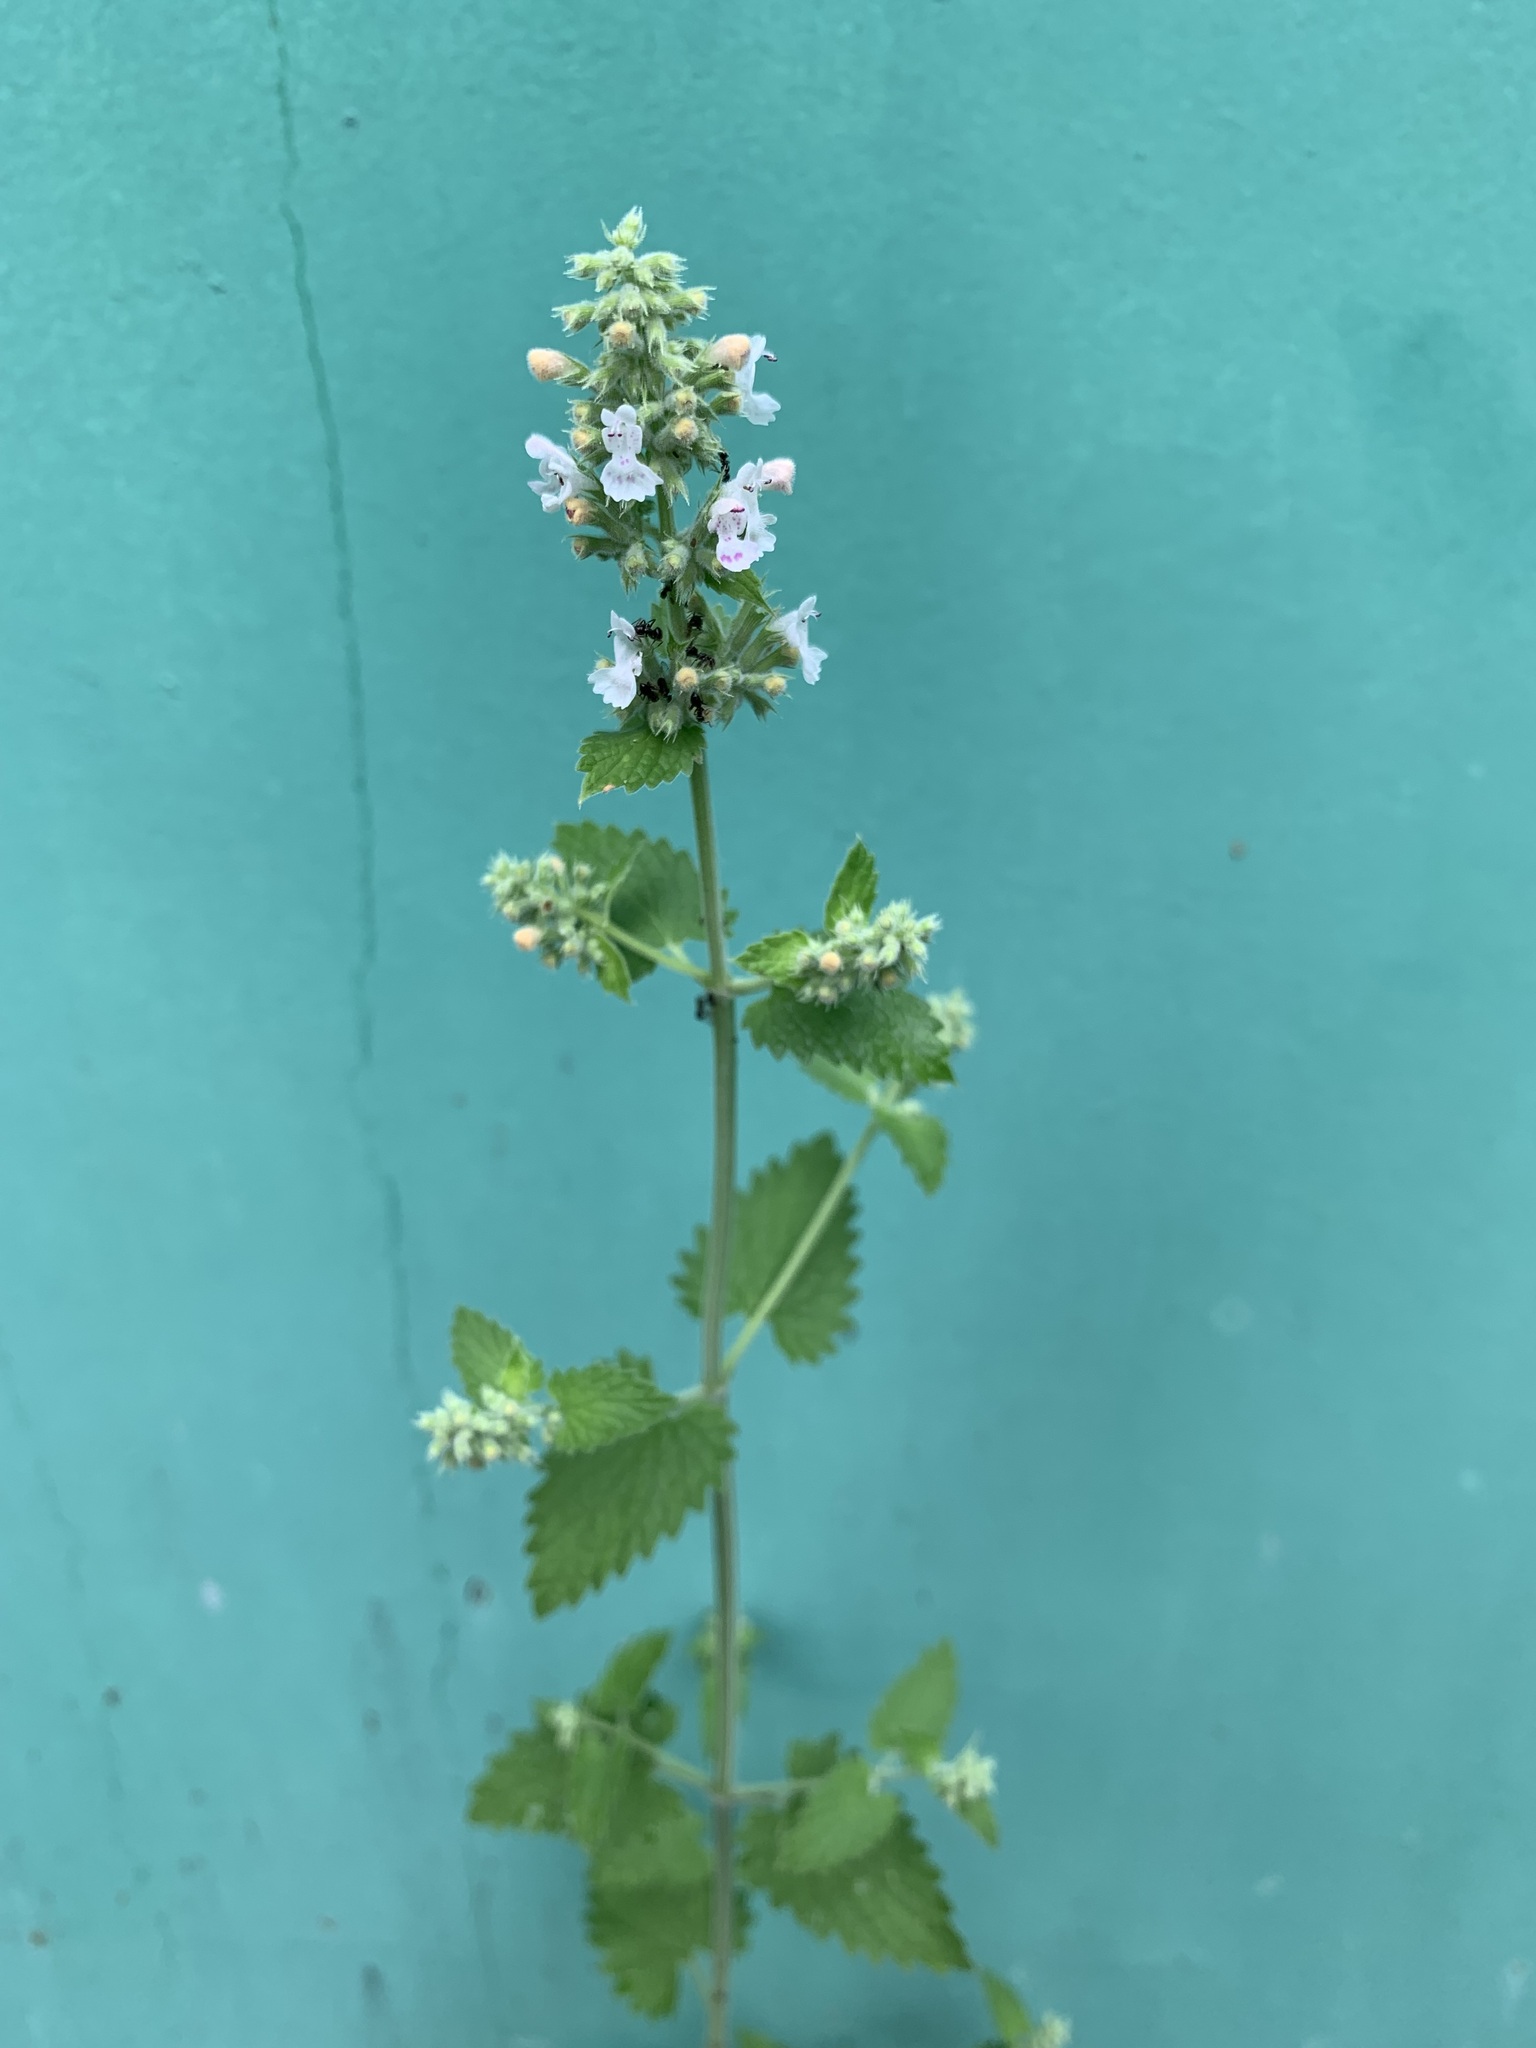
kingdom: Plantae
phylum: Tracheophyta
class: Magnoliopsida
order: Lamiales
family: Lamiaceae
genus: Nepeta
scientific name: Nepeta cataria
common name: Catnip
